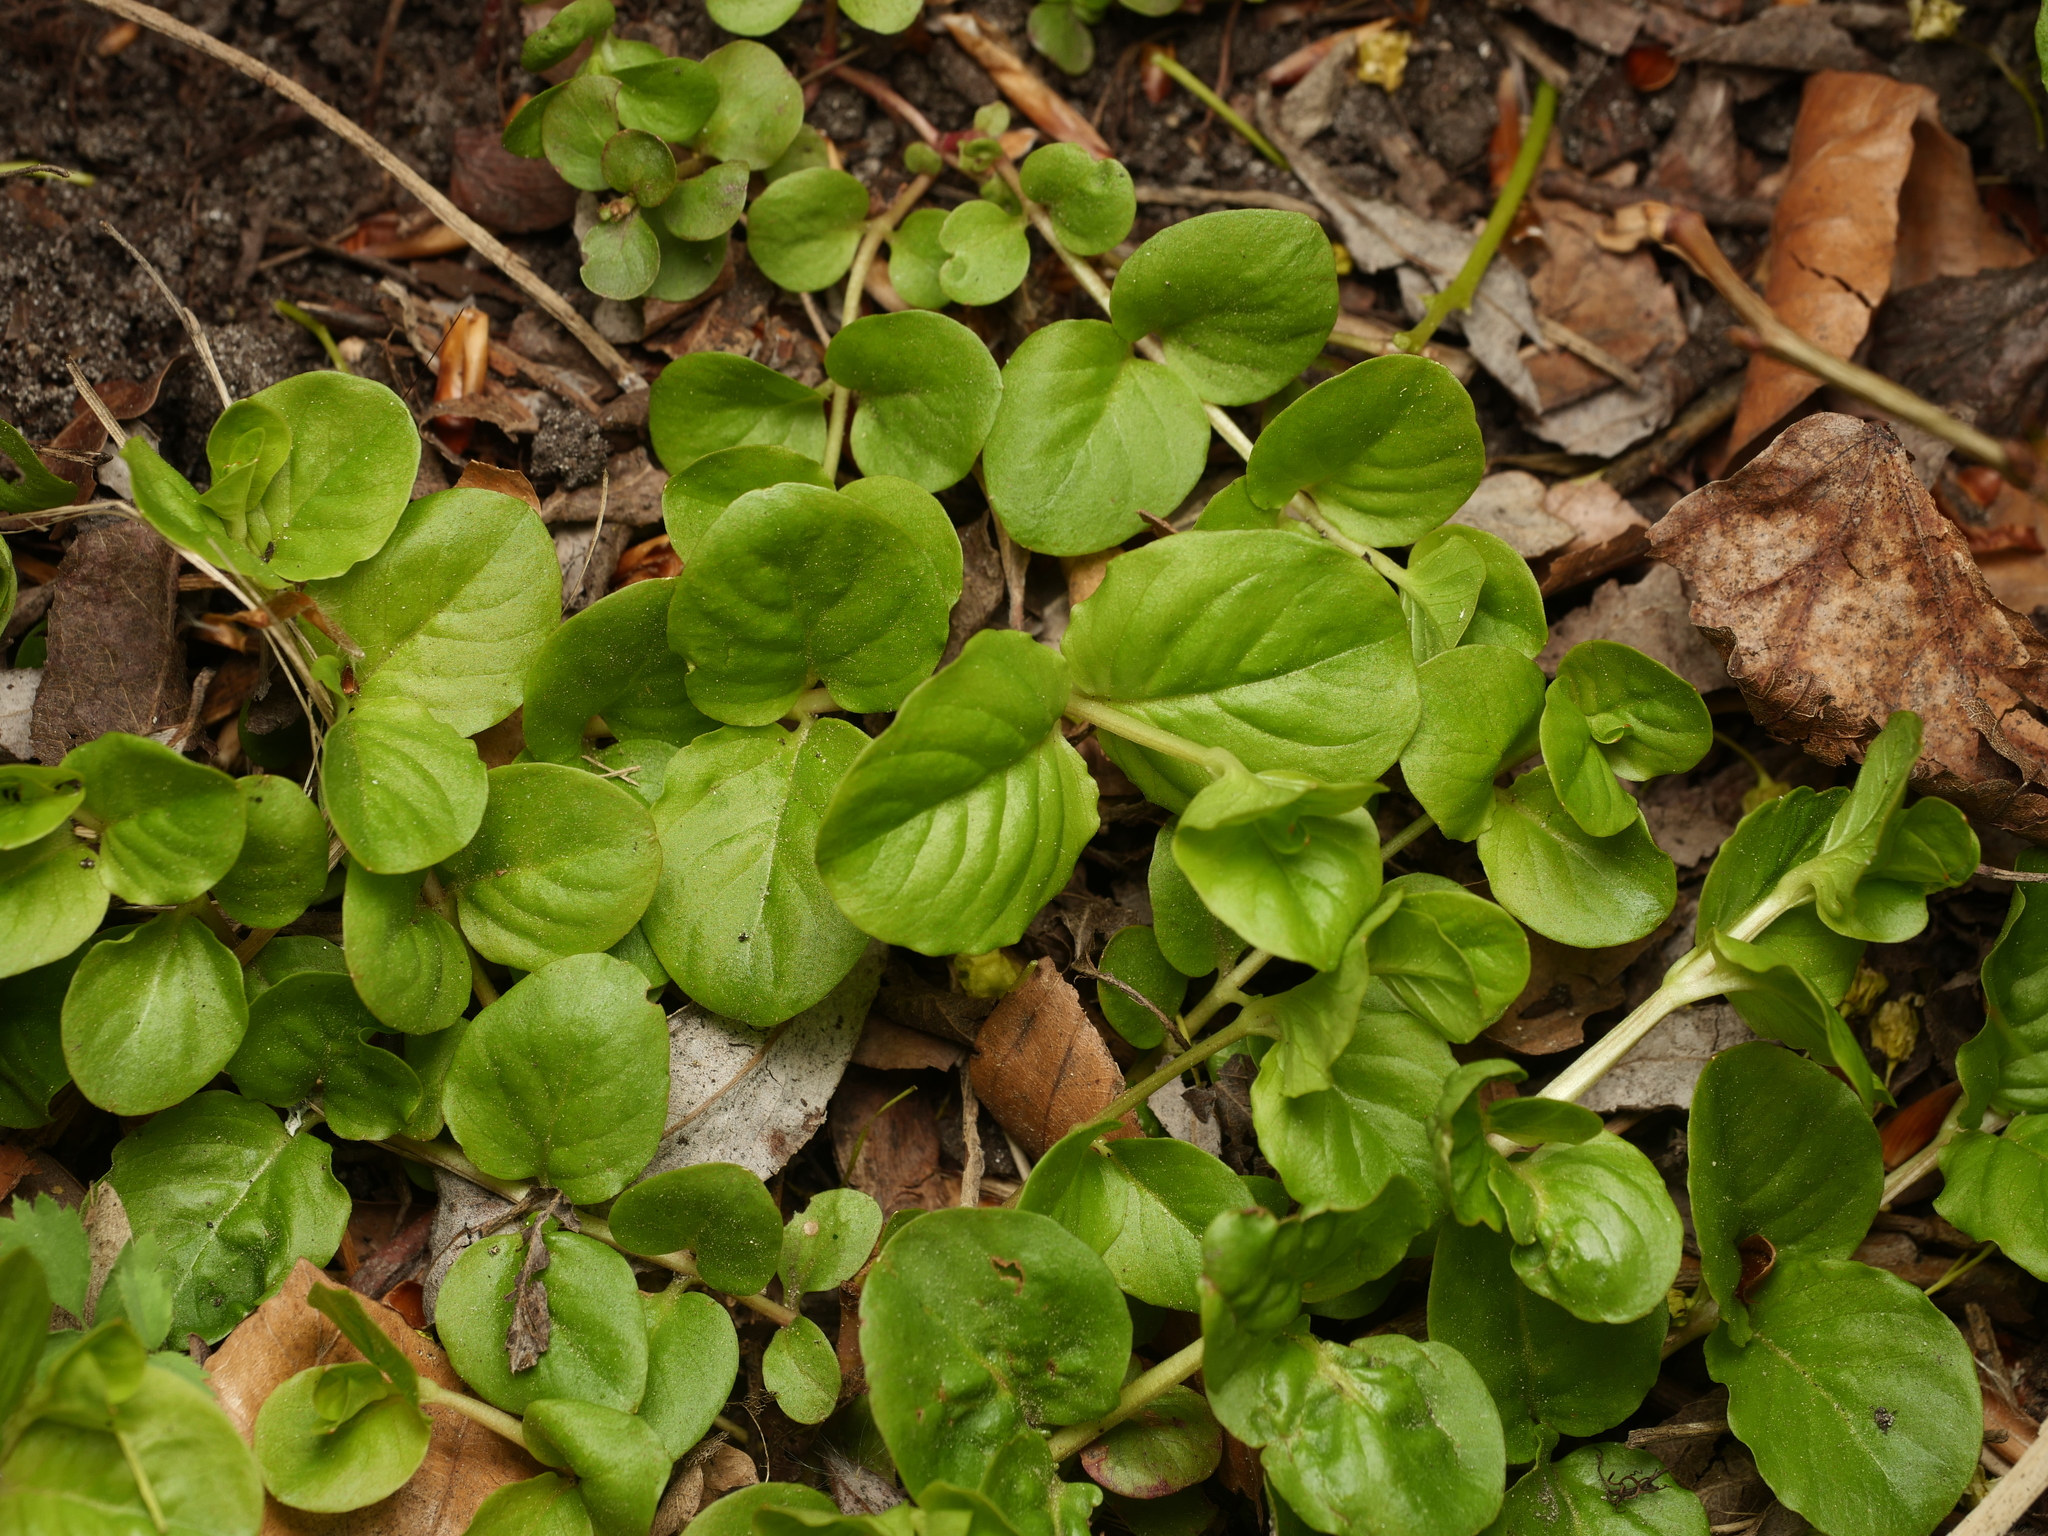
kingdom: Plantae
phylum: Tracheophyta
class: Magnoliopsida
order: Ericales
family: Primulaceae
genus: Lysimachia
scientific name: Lysimachia nummularia
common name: Moneywort
